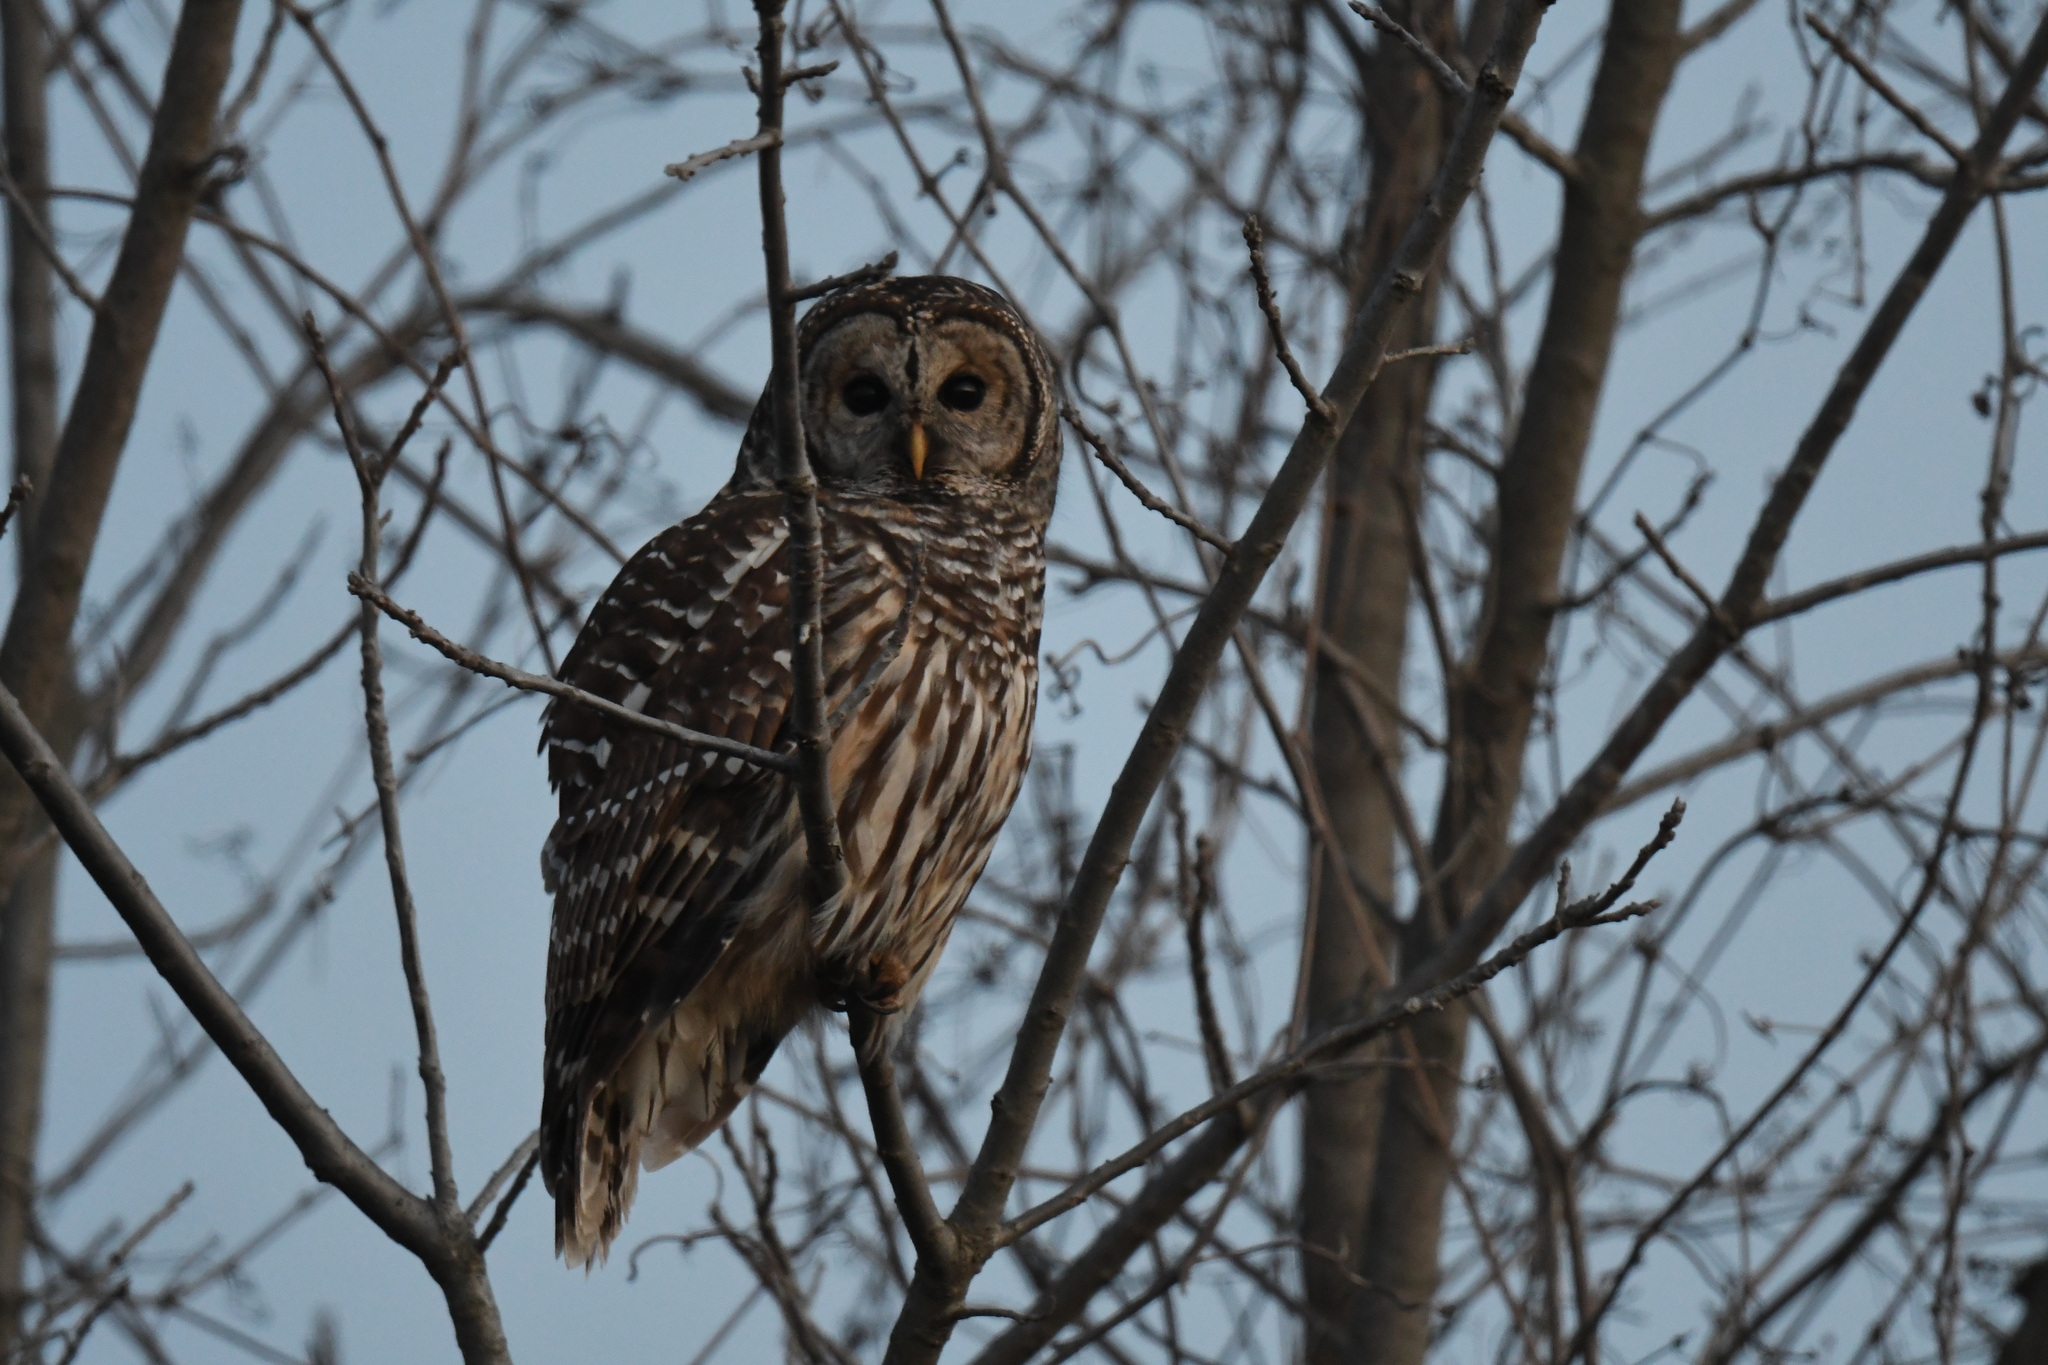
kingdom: Animalia
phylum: Chordata
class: Aves
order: Strigiformes
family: Strigidae
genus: Strix
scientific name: Strix varia
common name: Barred owl
